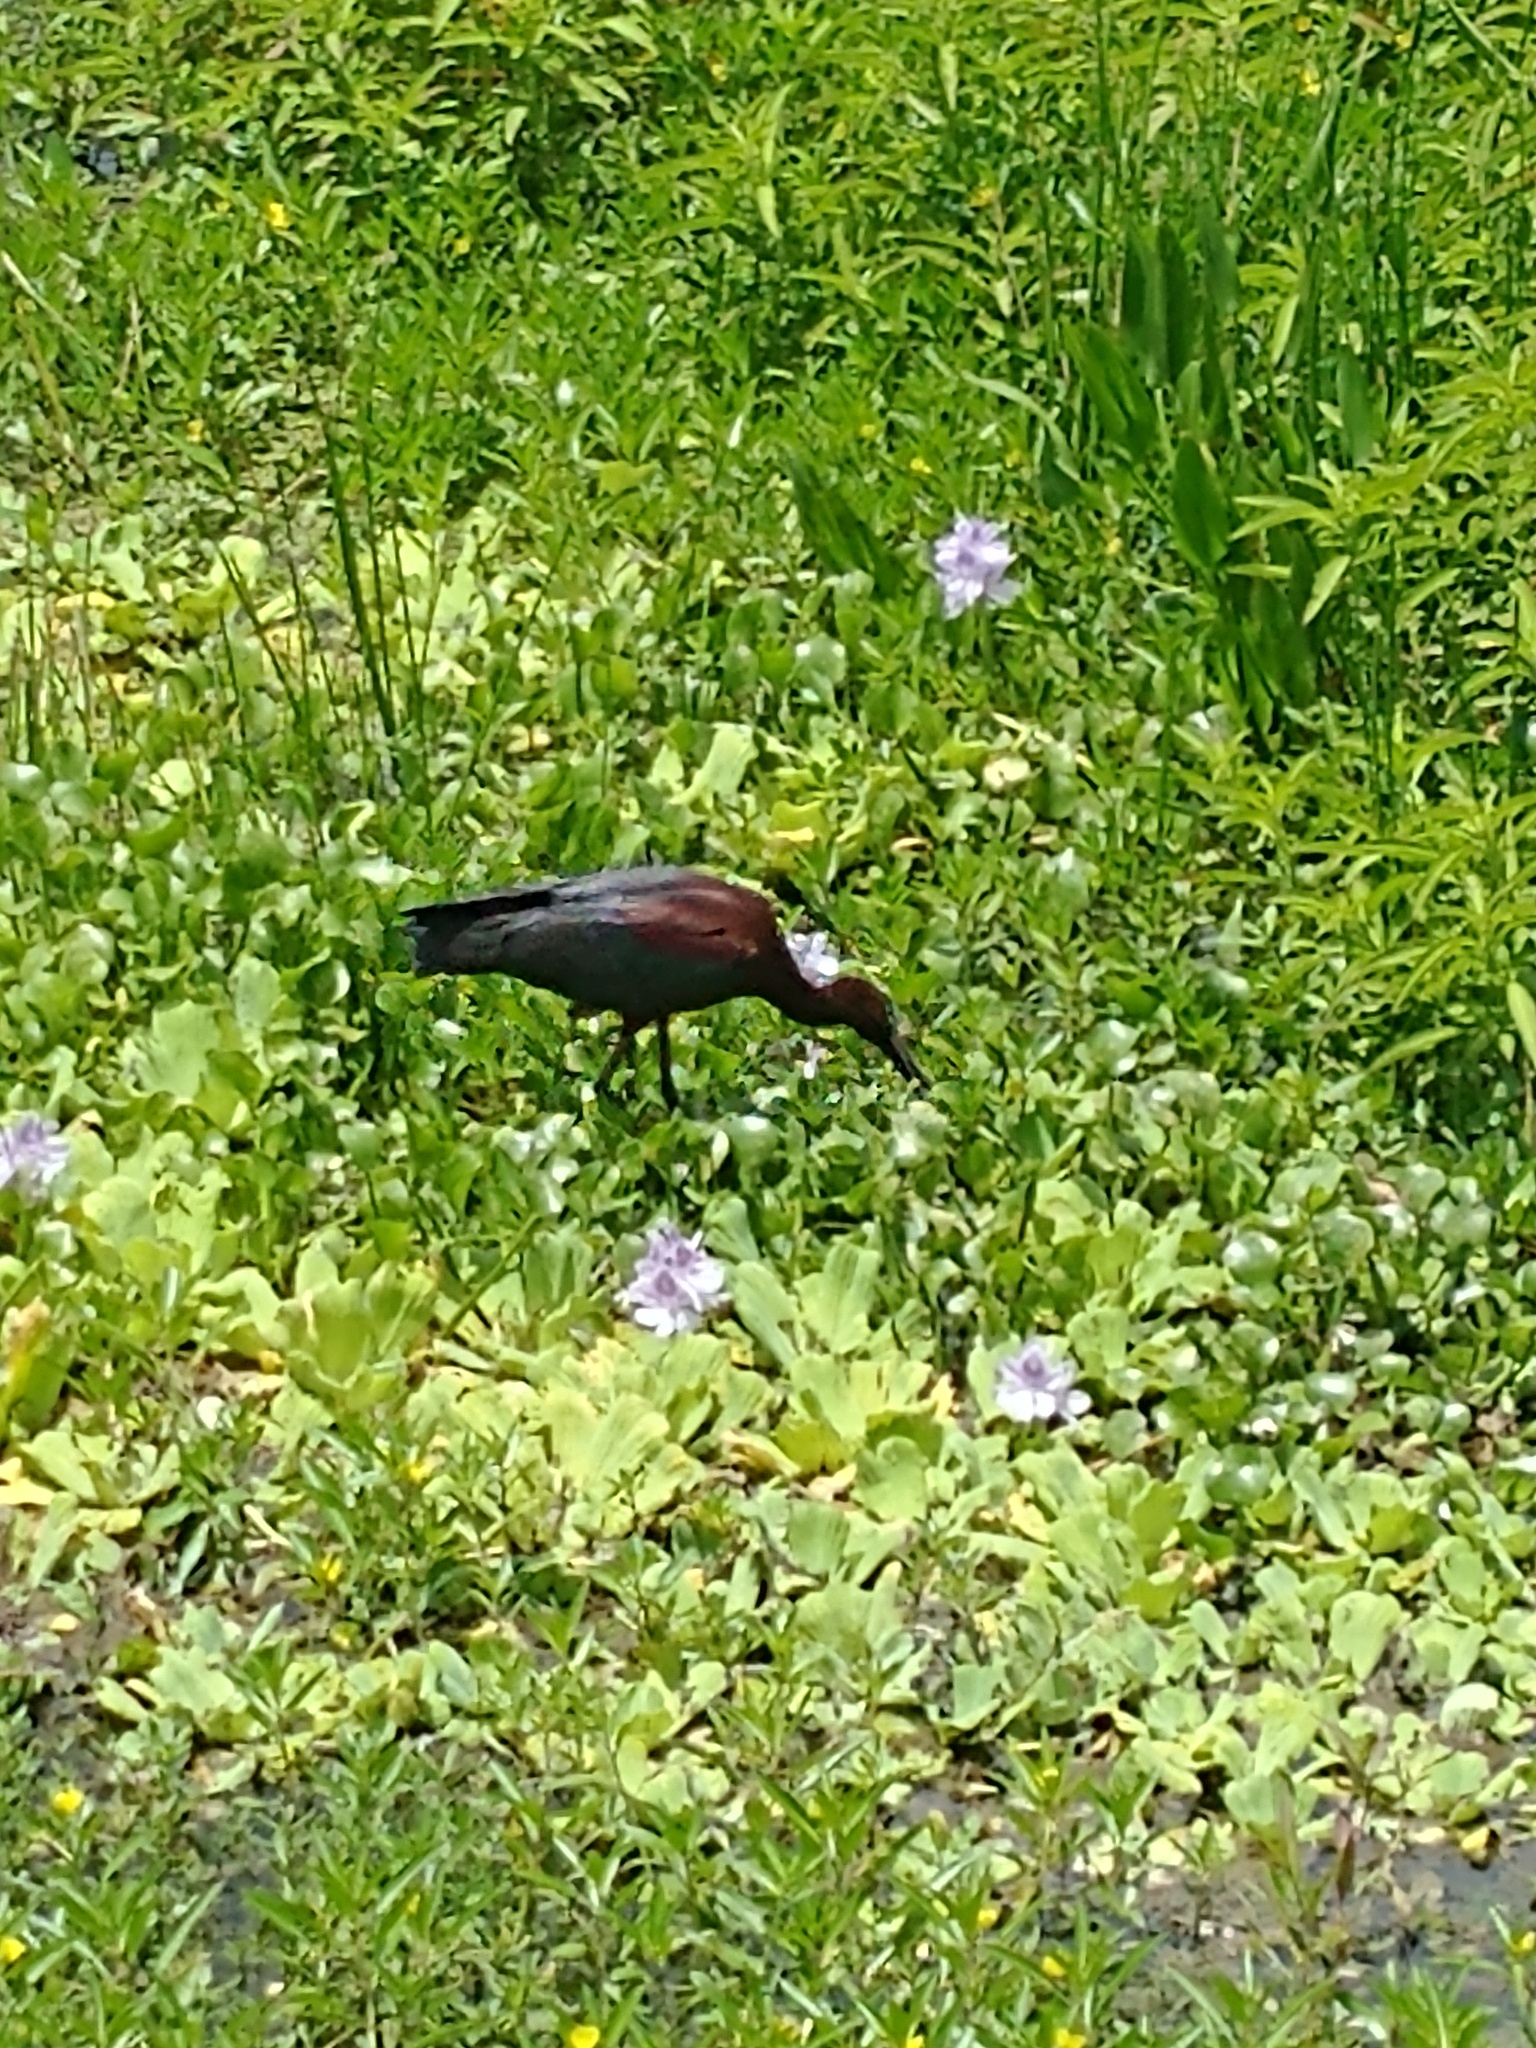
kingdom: Animalia
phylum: Chordata
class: Aves
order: Pelecaniformes
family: Threskiornithidae
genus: Plegadis
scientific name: Plegadis falcinellus
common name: Glossy ibis
